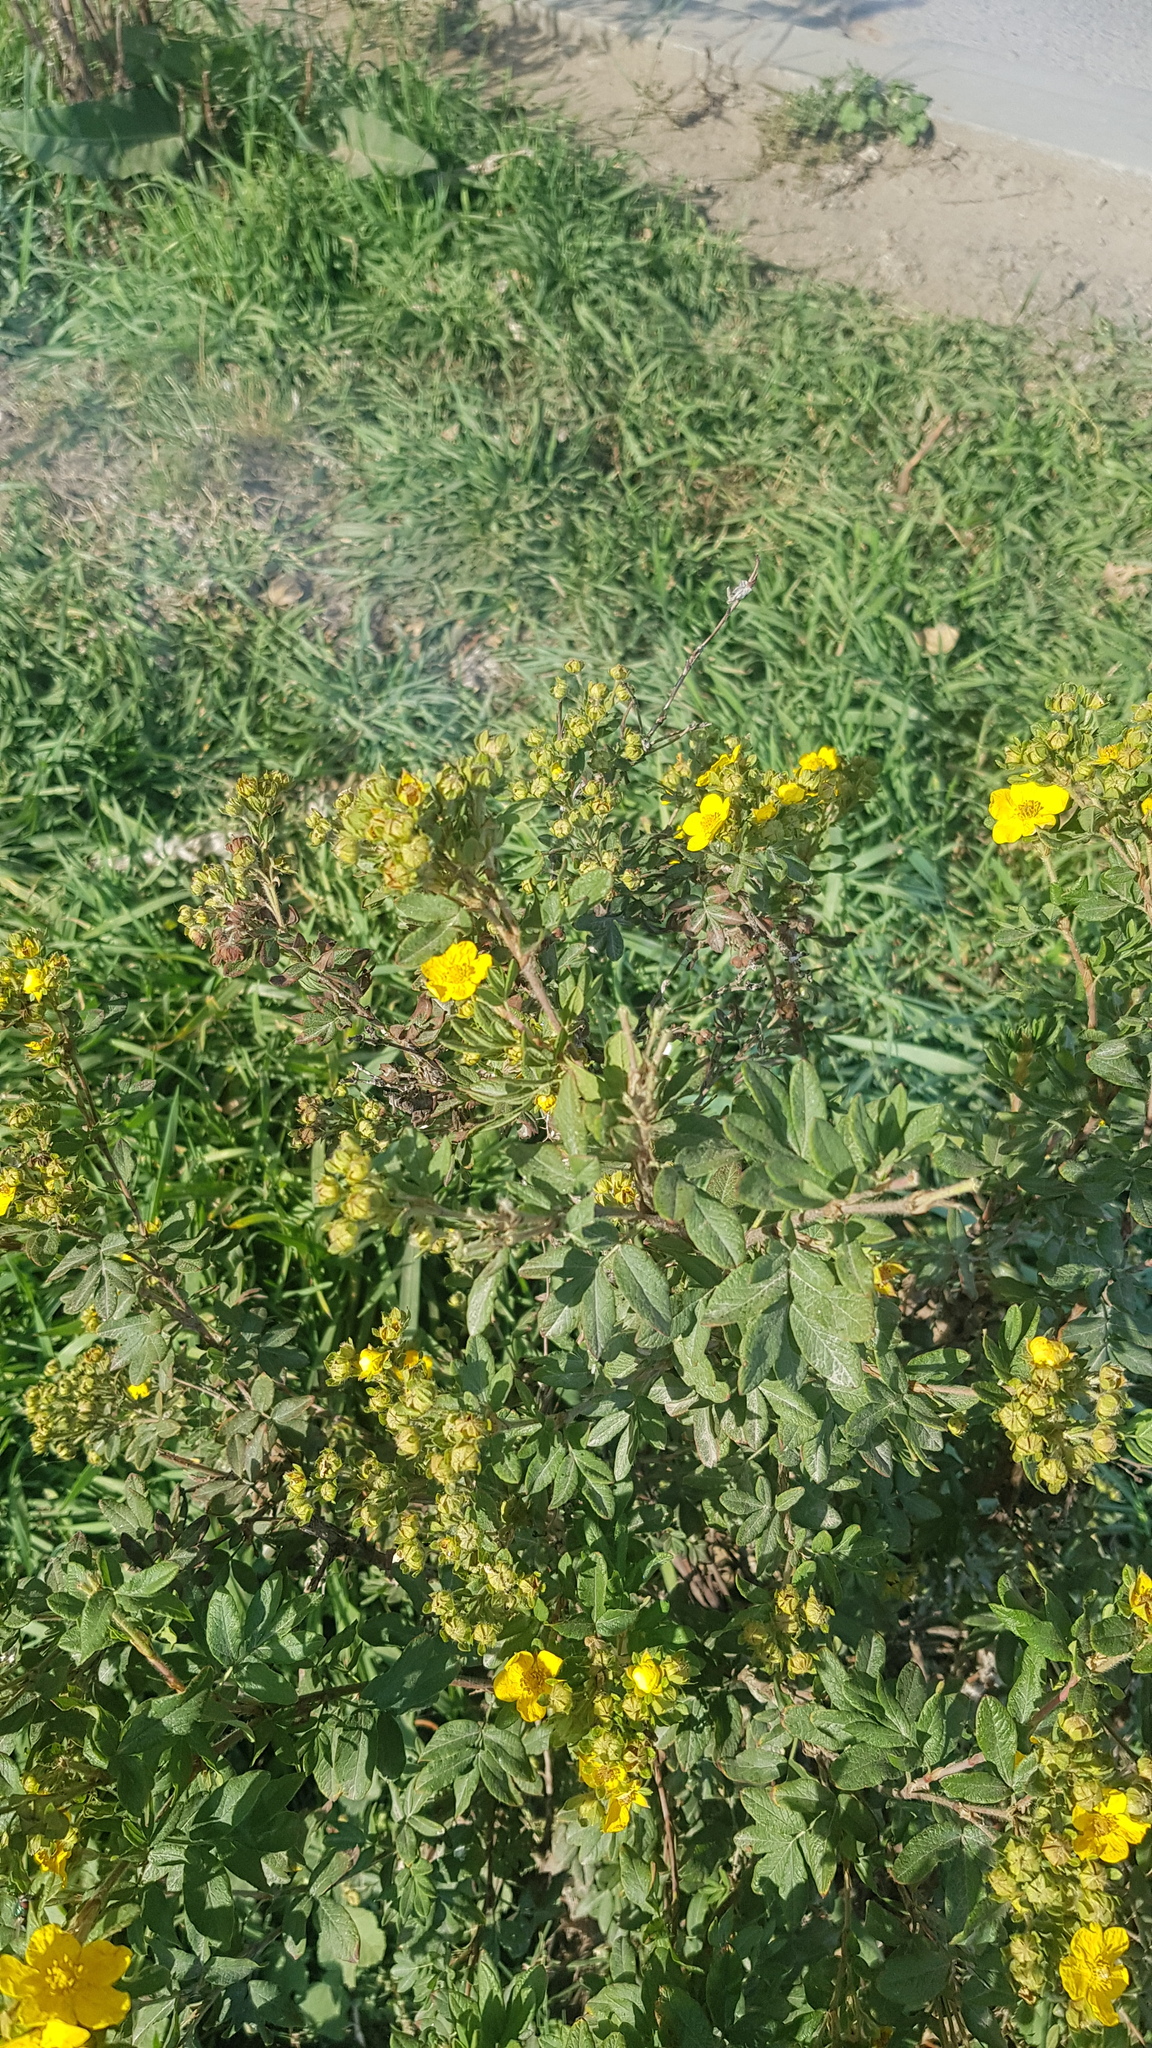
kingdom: Plantae
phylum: Tracheophyta
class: Magnoliopsida
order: Rosales
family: Rosaceae
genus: Dasiphora
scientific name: Dasiphora fruticosa
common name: Shrubby cinquefoil
